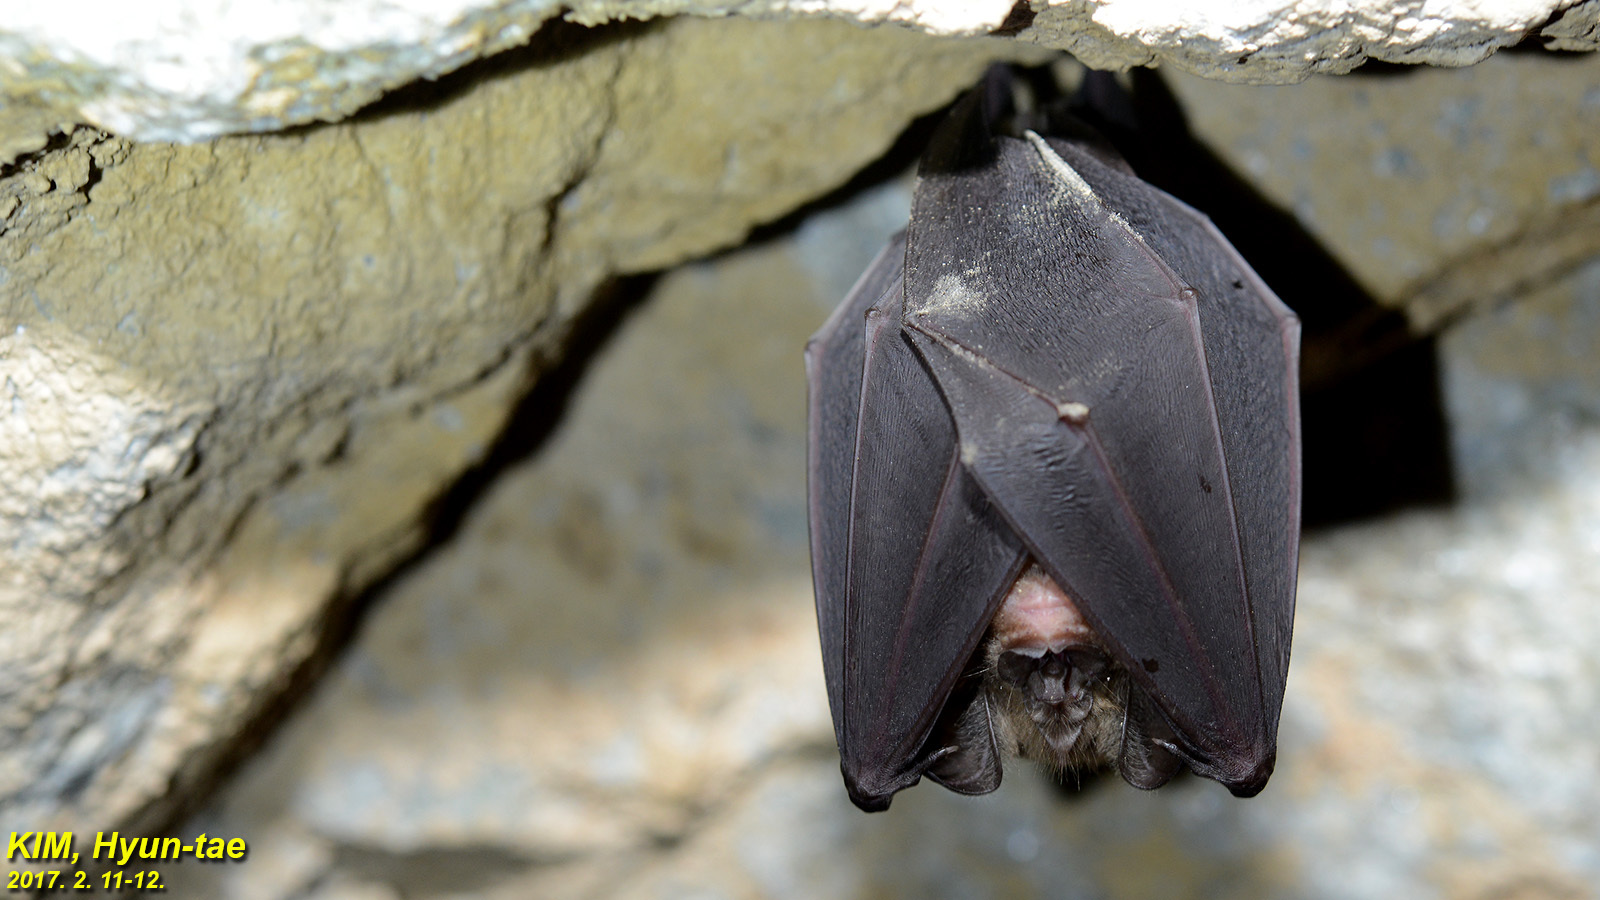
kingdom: Animalia
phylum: Chordata
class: Mammalia
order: Chiroptera
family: Rhinolophidae
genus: Rhinolophus
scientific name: Rhinolophus ferrumequinum
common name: Greater horseshoe bat
